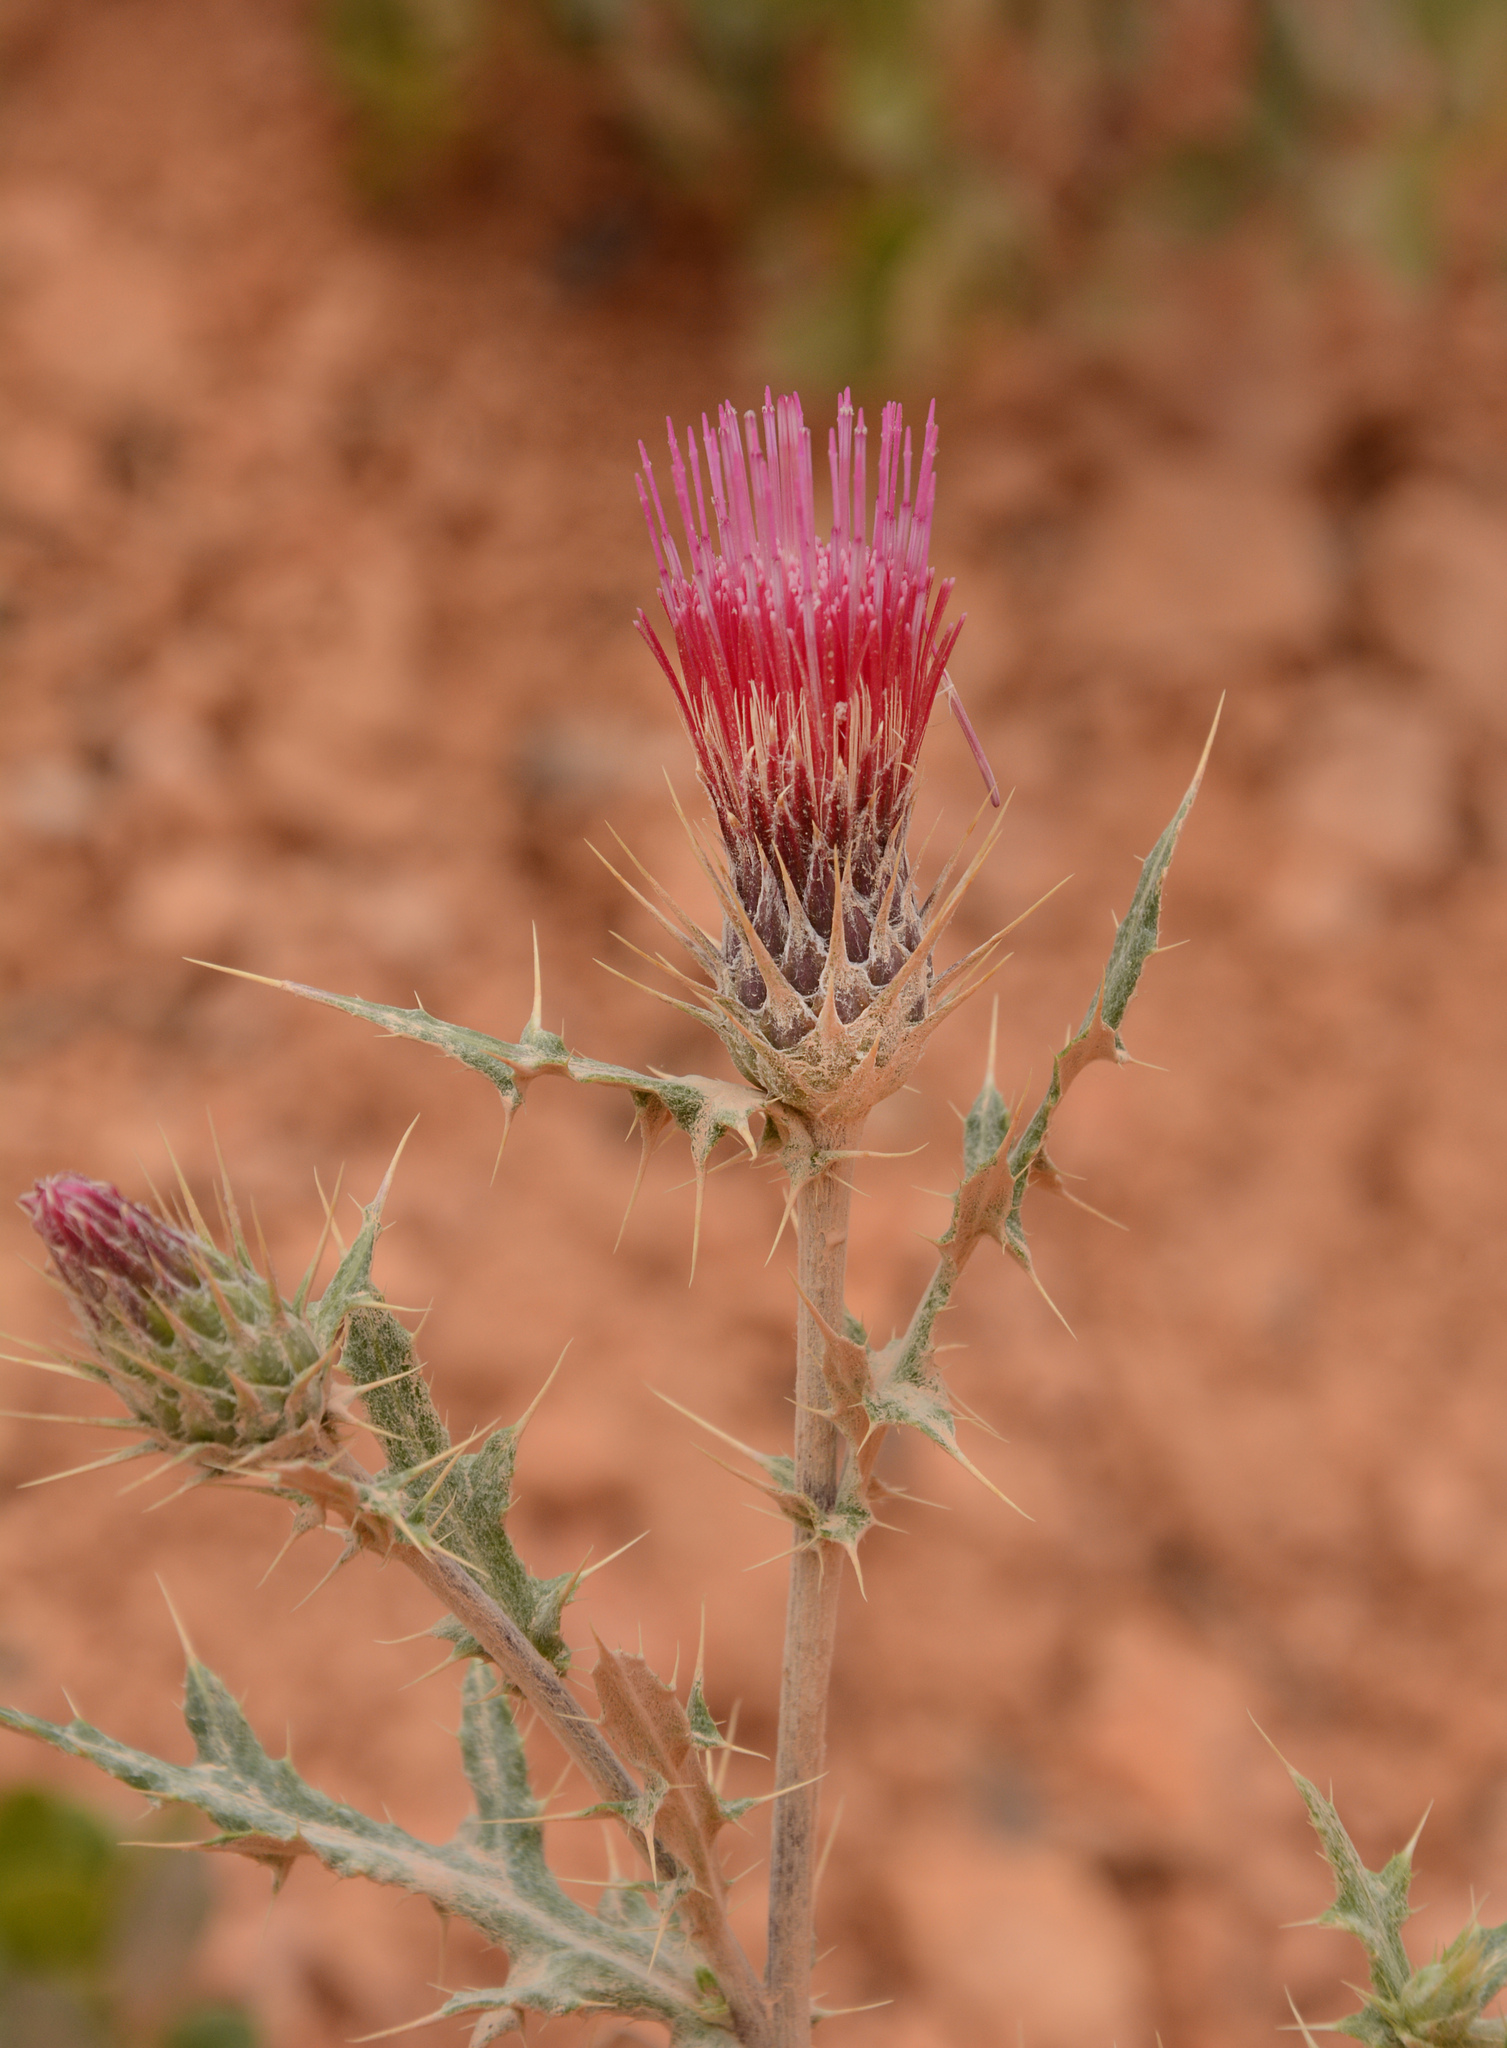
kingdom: Plantae
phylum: Tracheophyta
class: Magnoliopsida
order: Asterales
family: Asteraceae
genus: Cirsium
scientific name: Cirsium arizonicum
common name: Arizona thistle
